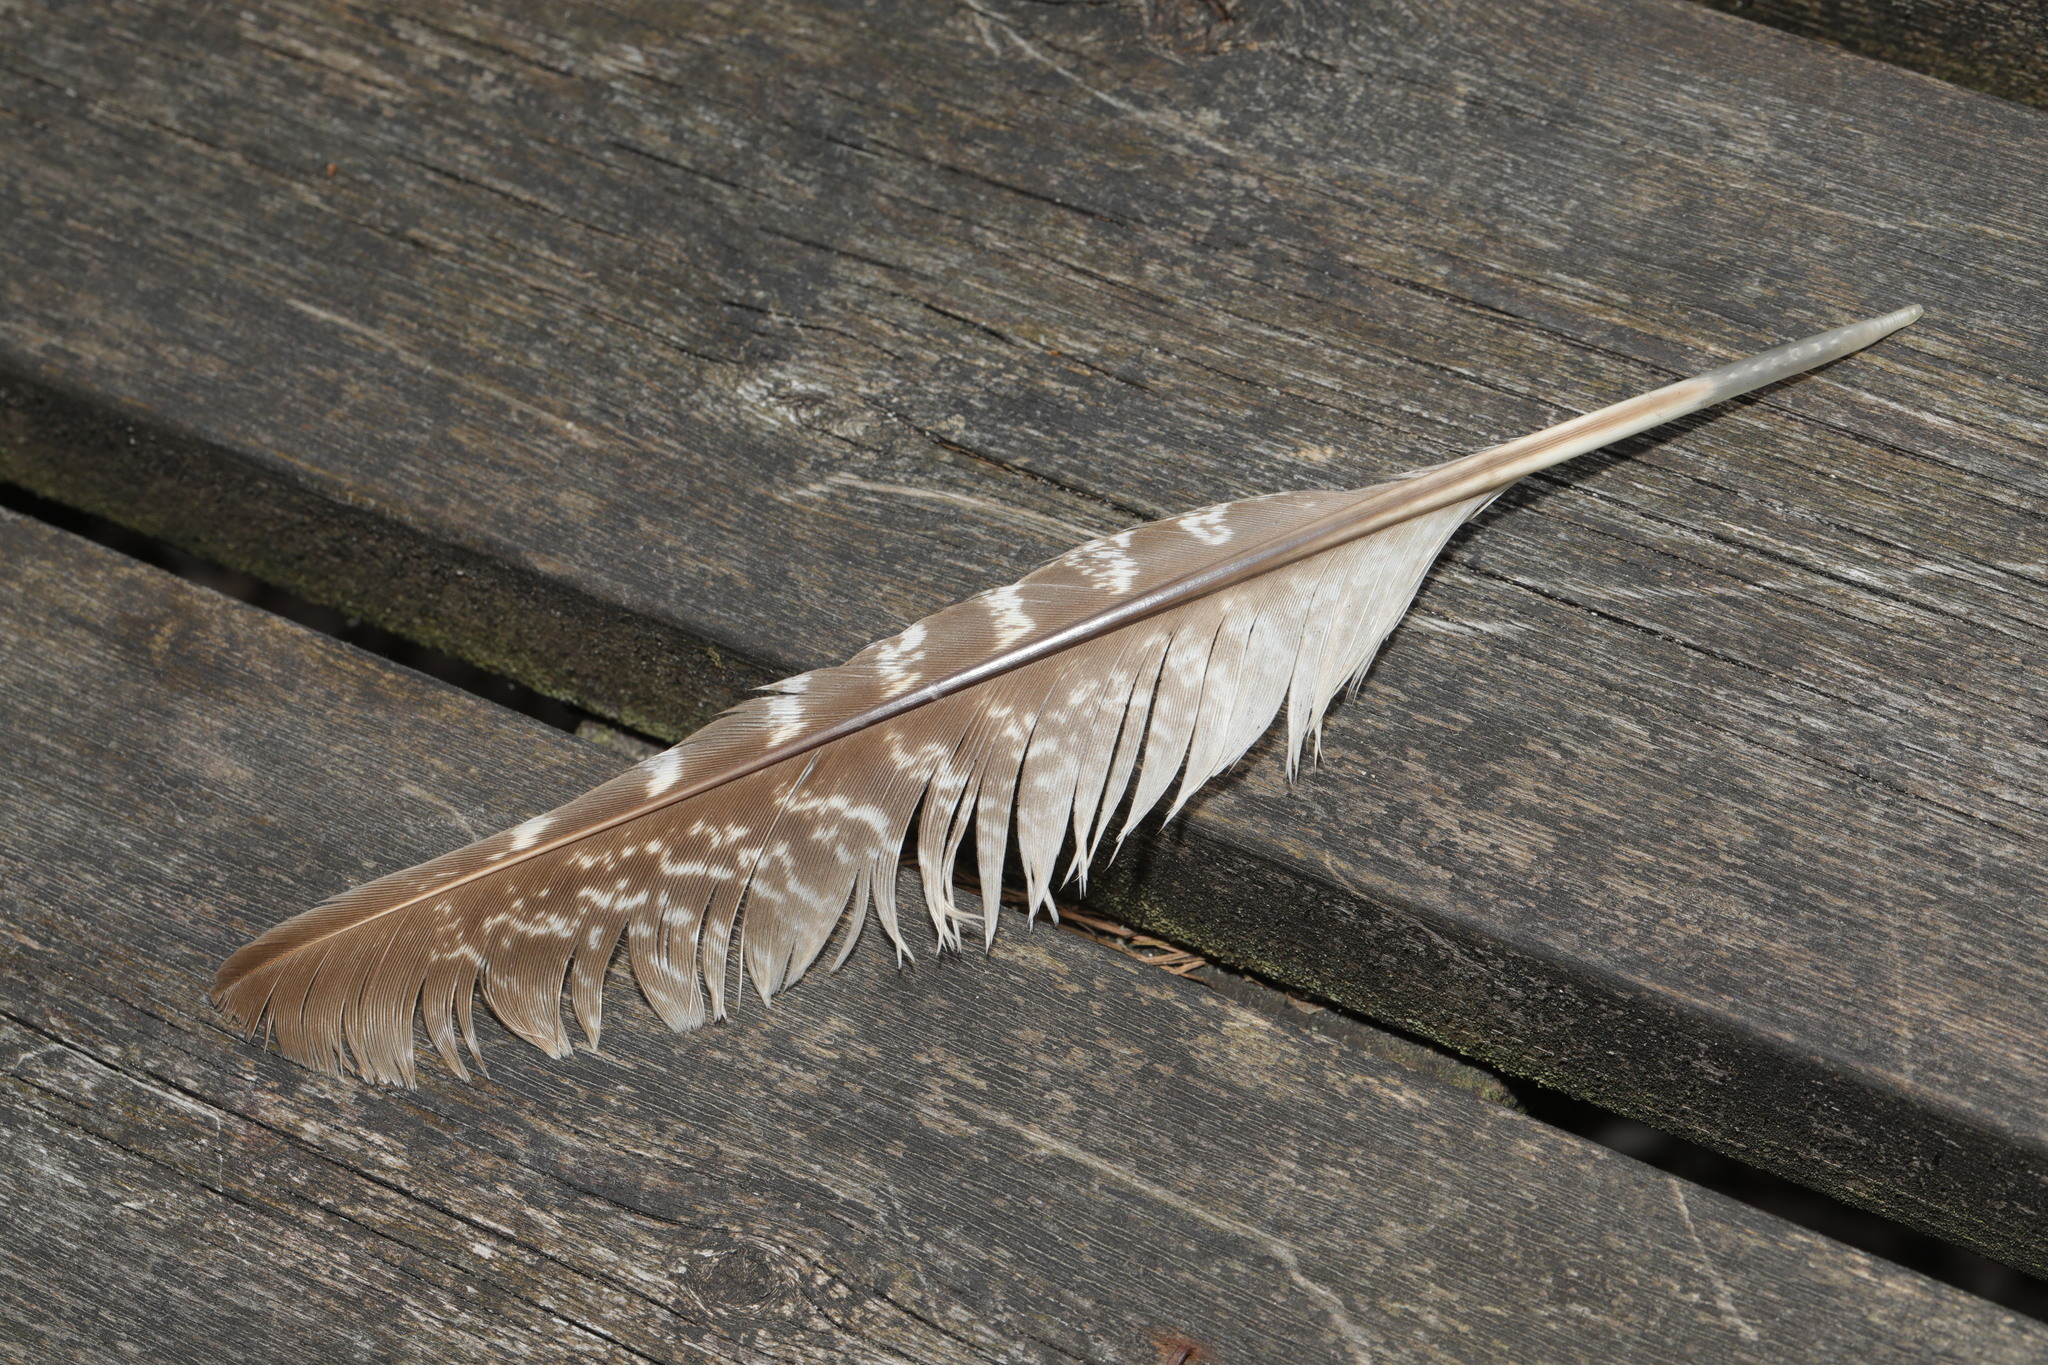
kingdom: Animalia
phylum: Chordata
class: Aves
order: Galliformes
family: Phasianidae
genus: Phasianus
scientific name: Phasianus colchicus
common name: Common pheasant
